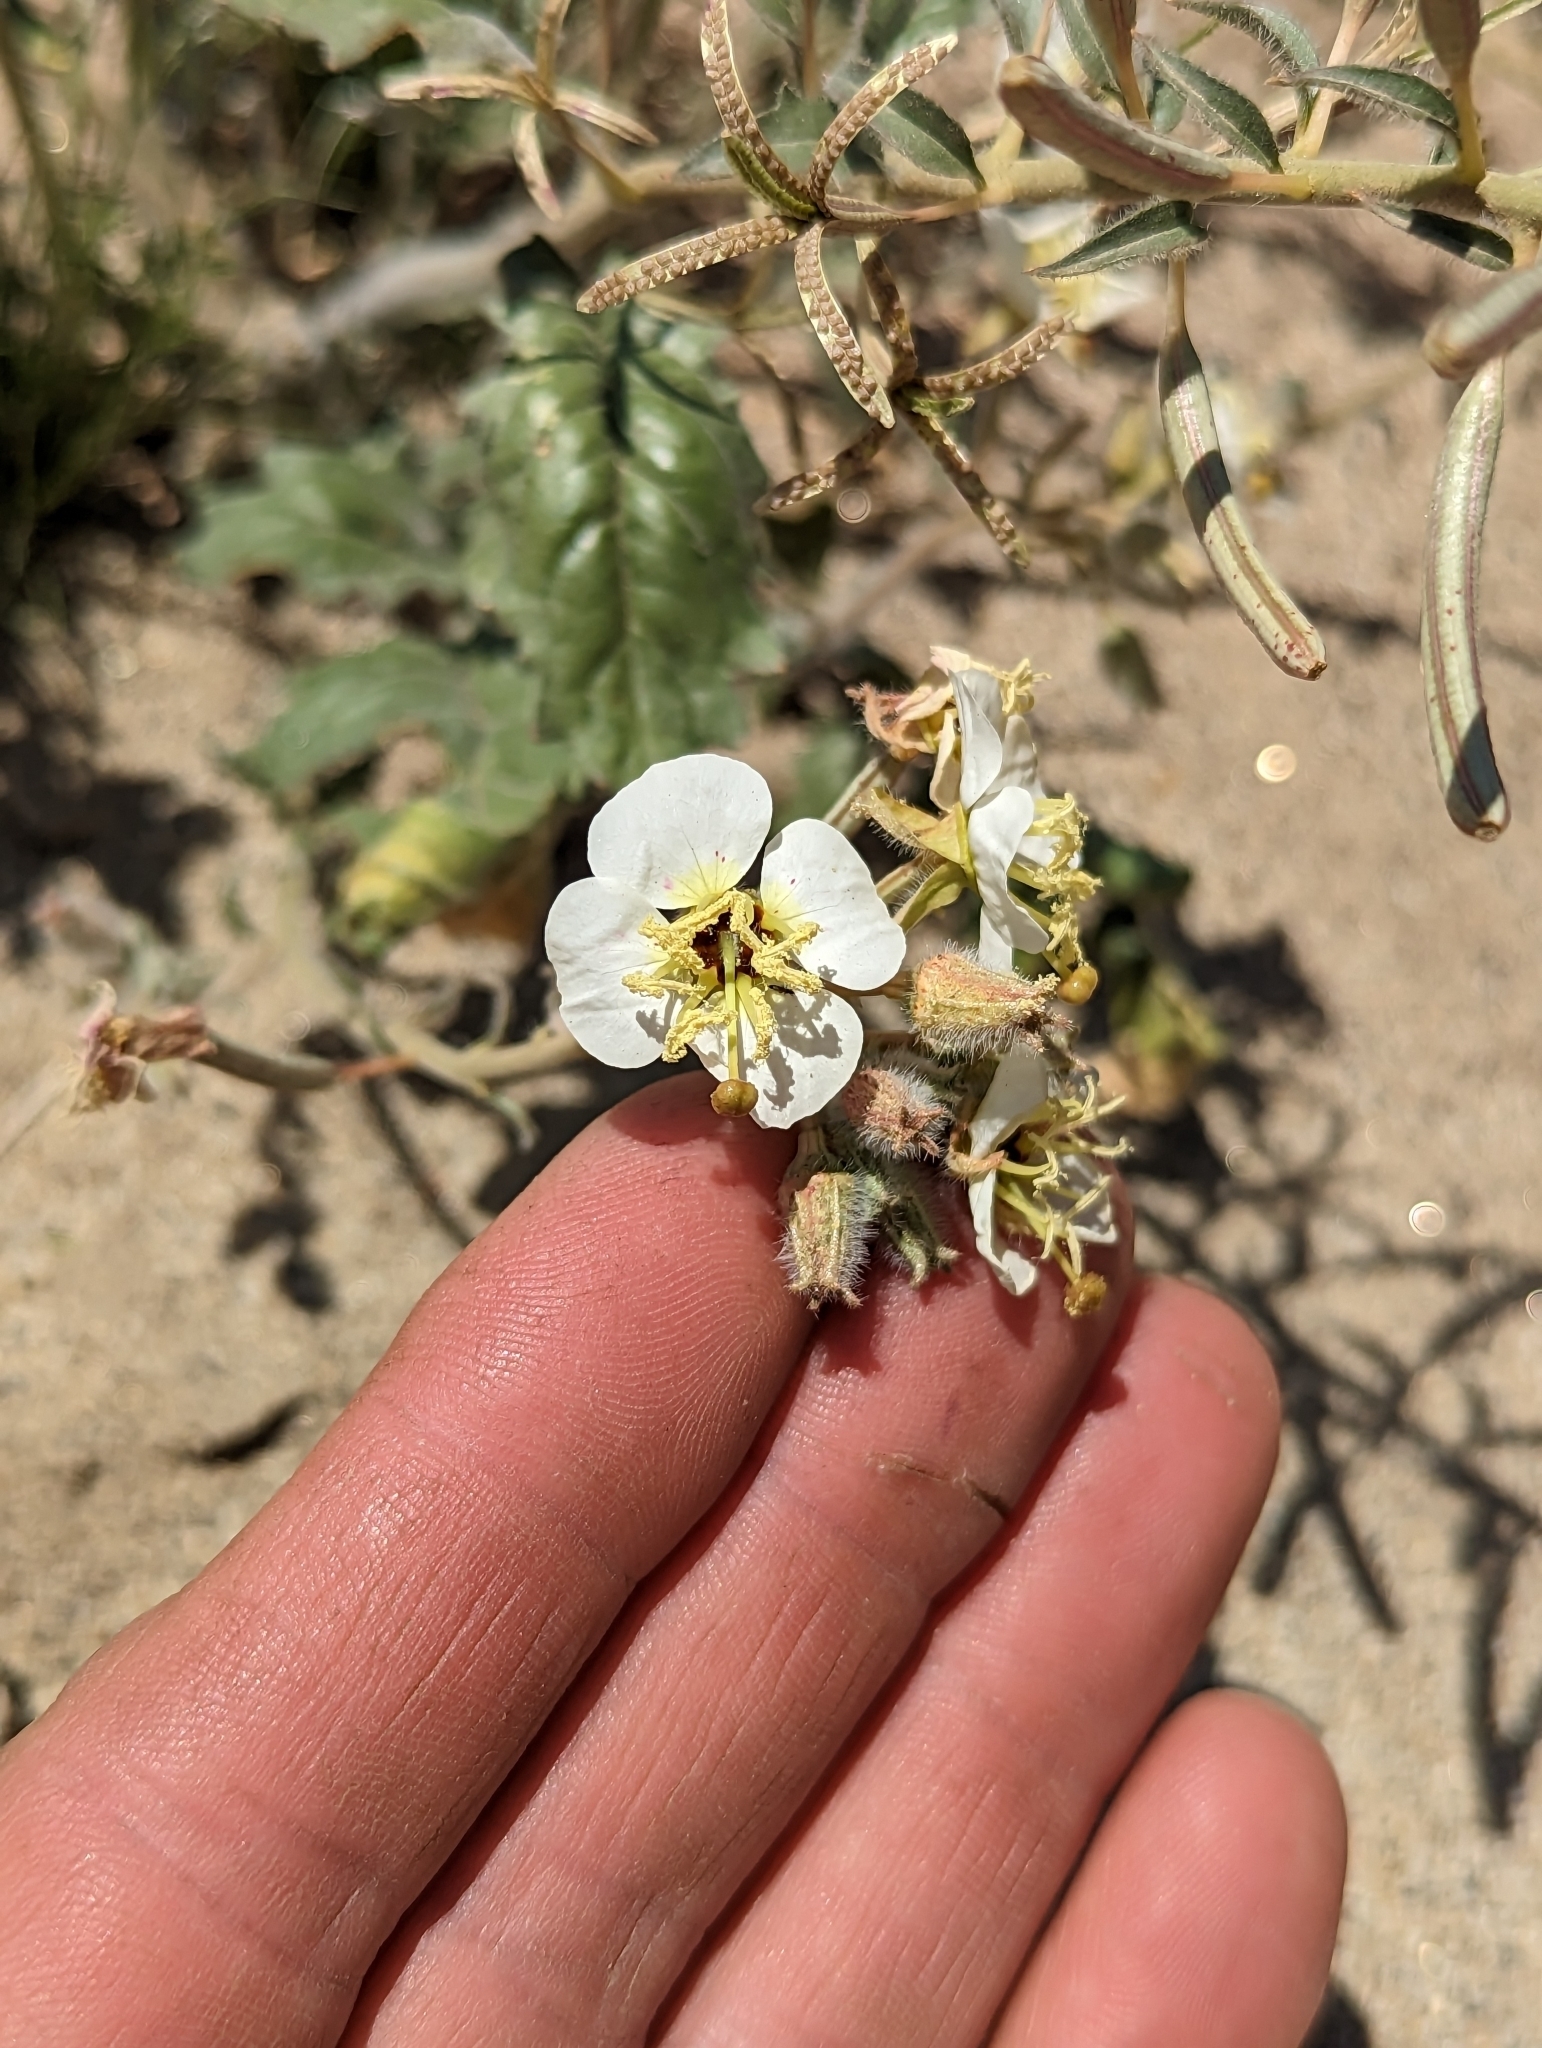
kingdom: Plantae
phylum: Tracheophyta
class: Magnoliopsida
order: Myrtales
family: Onagraceae
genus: Chylismia
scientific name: Chylismia claviformis
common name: Browneyes
